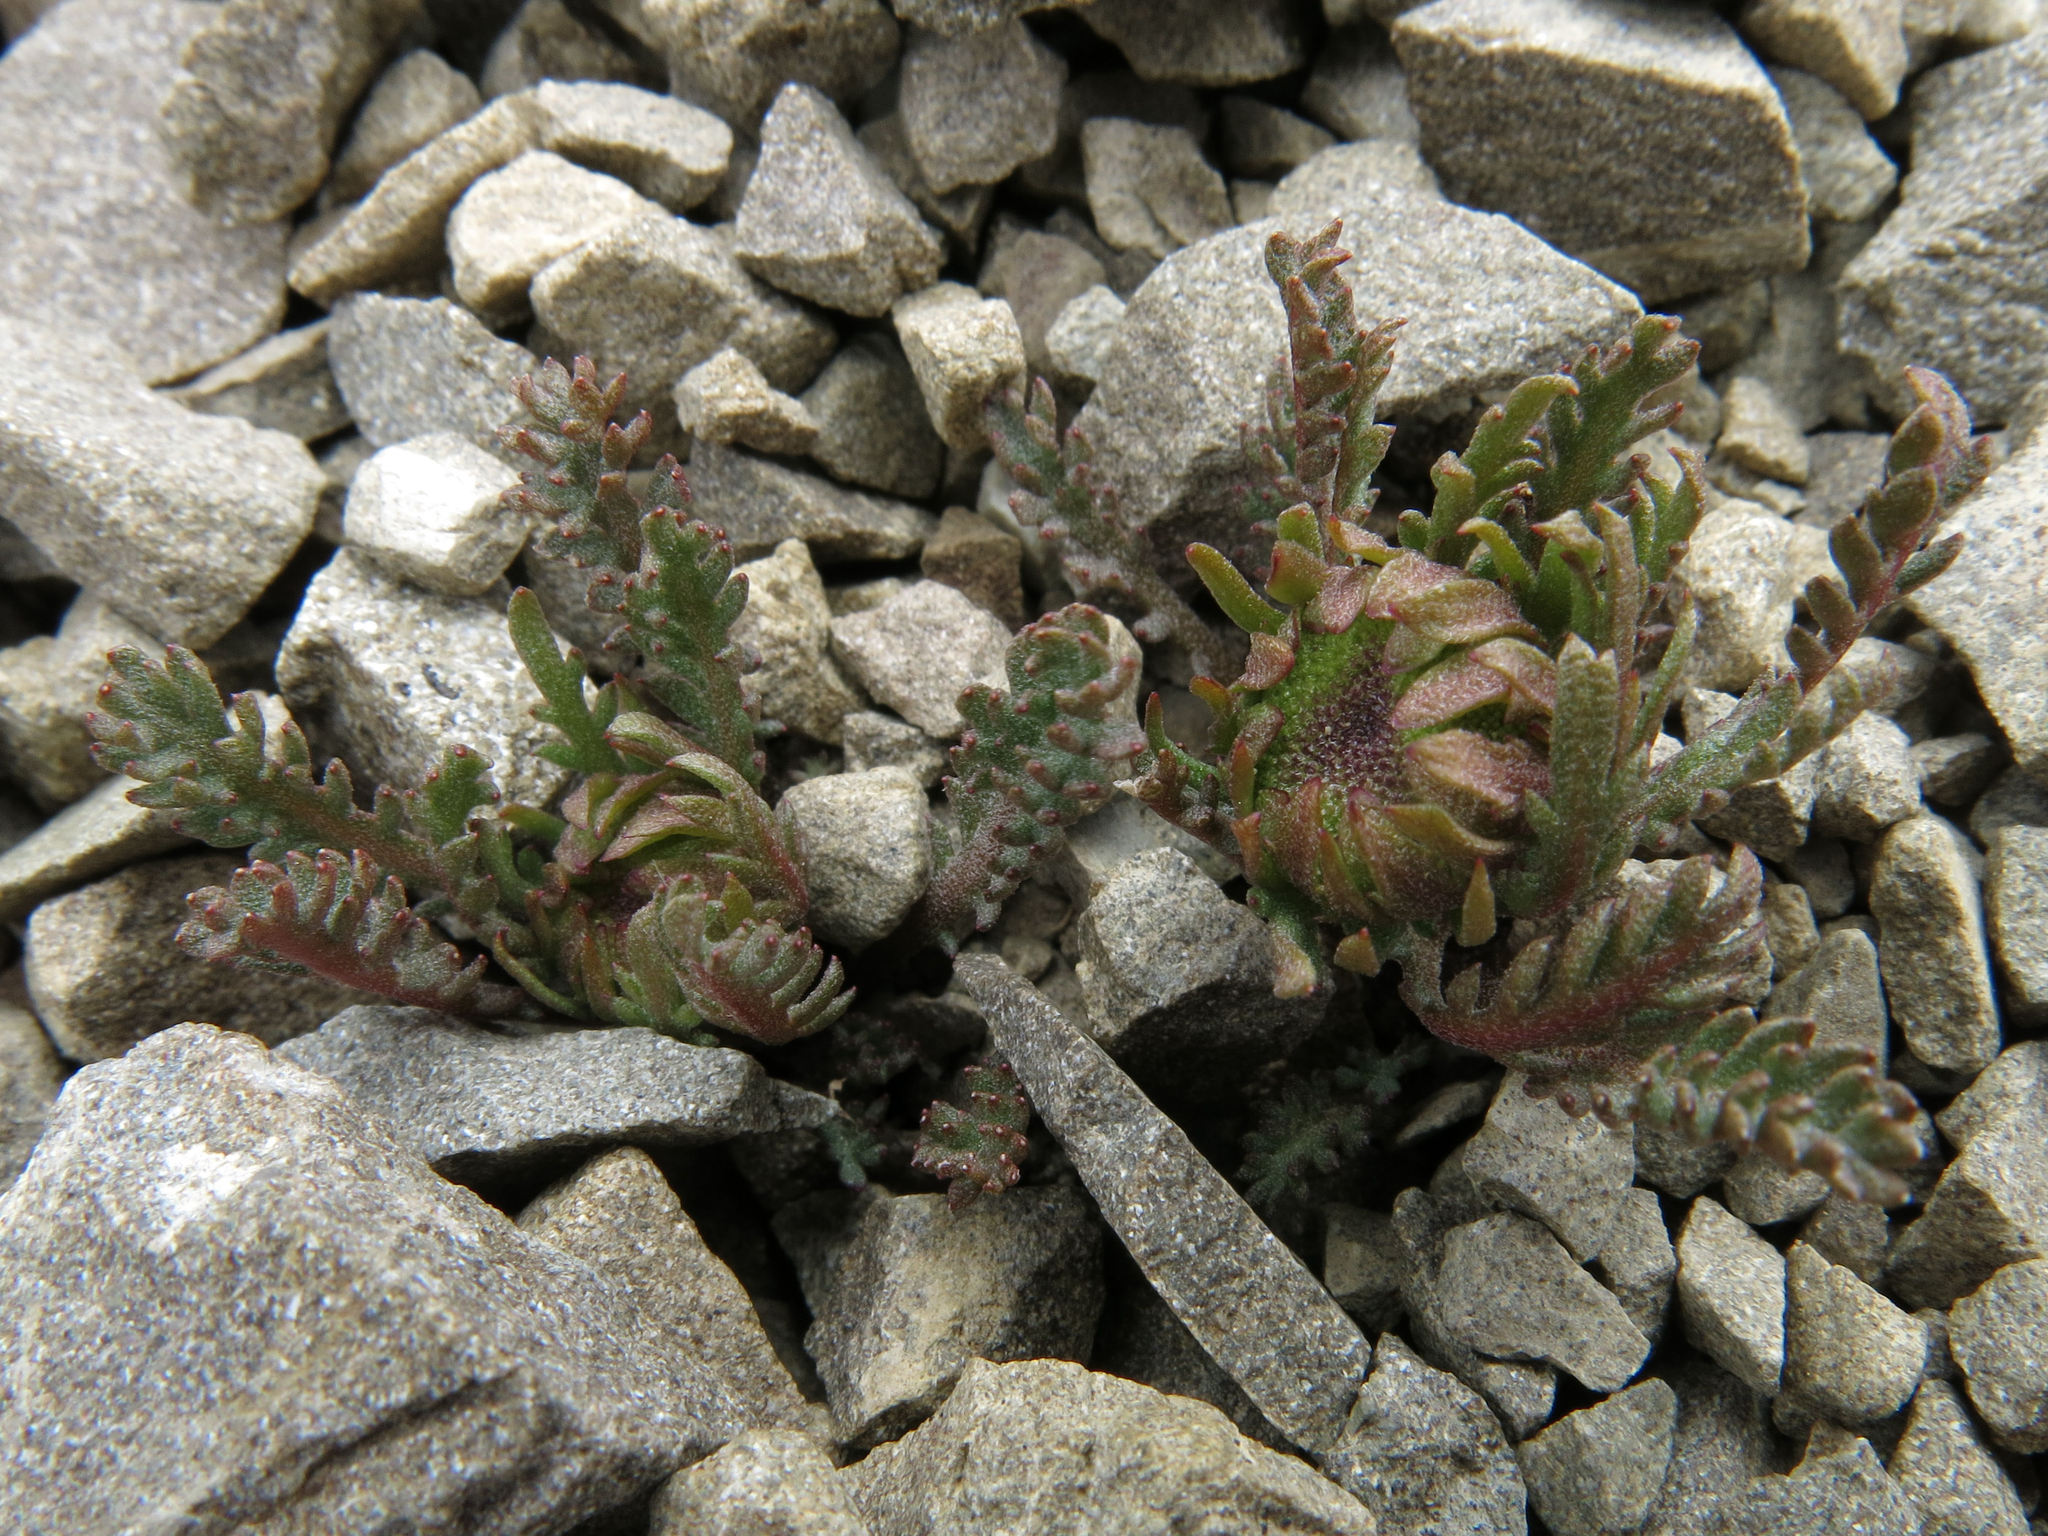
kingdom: Plantae
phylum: Tracheophyta
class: Magnoliopsida
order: Asterales
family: Asteraceae
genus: Leptinella
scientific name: Leptinella dendyi
